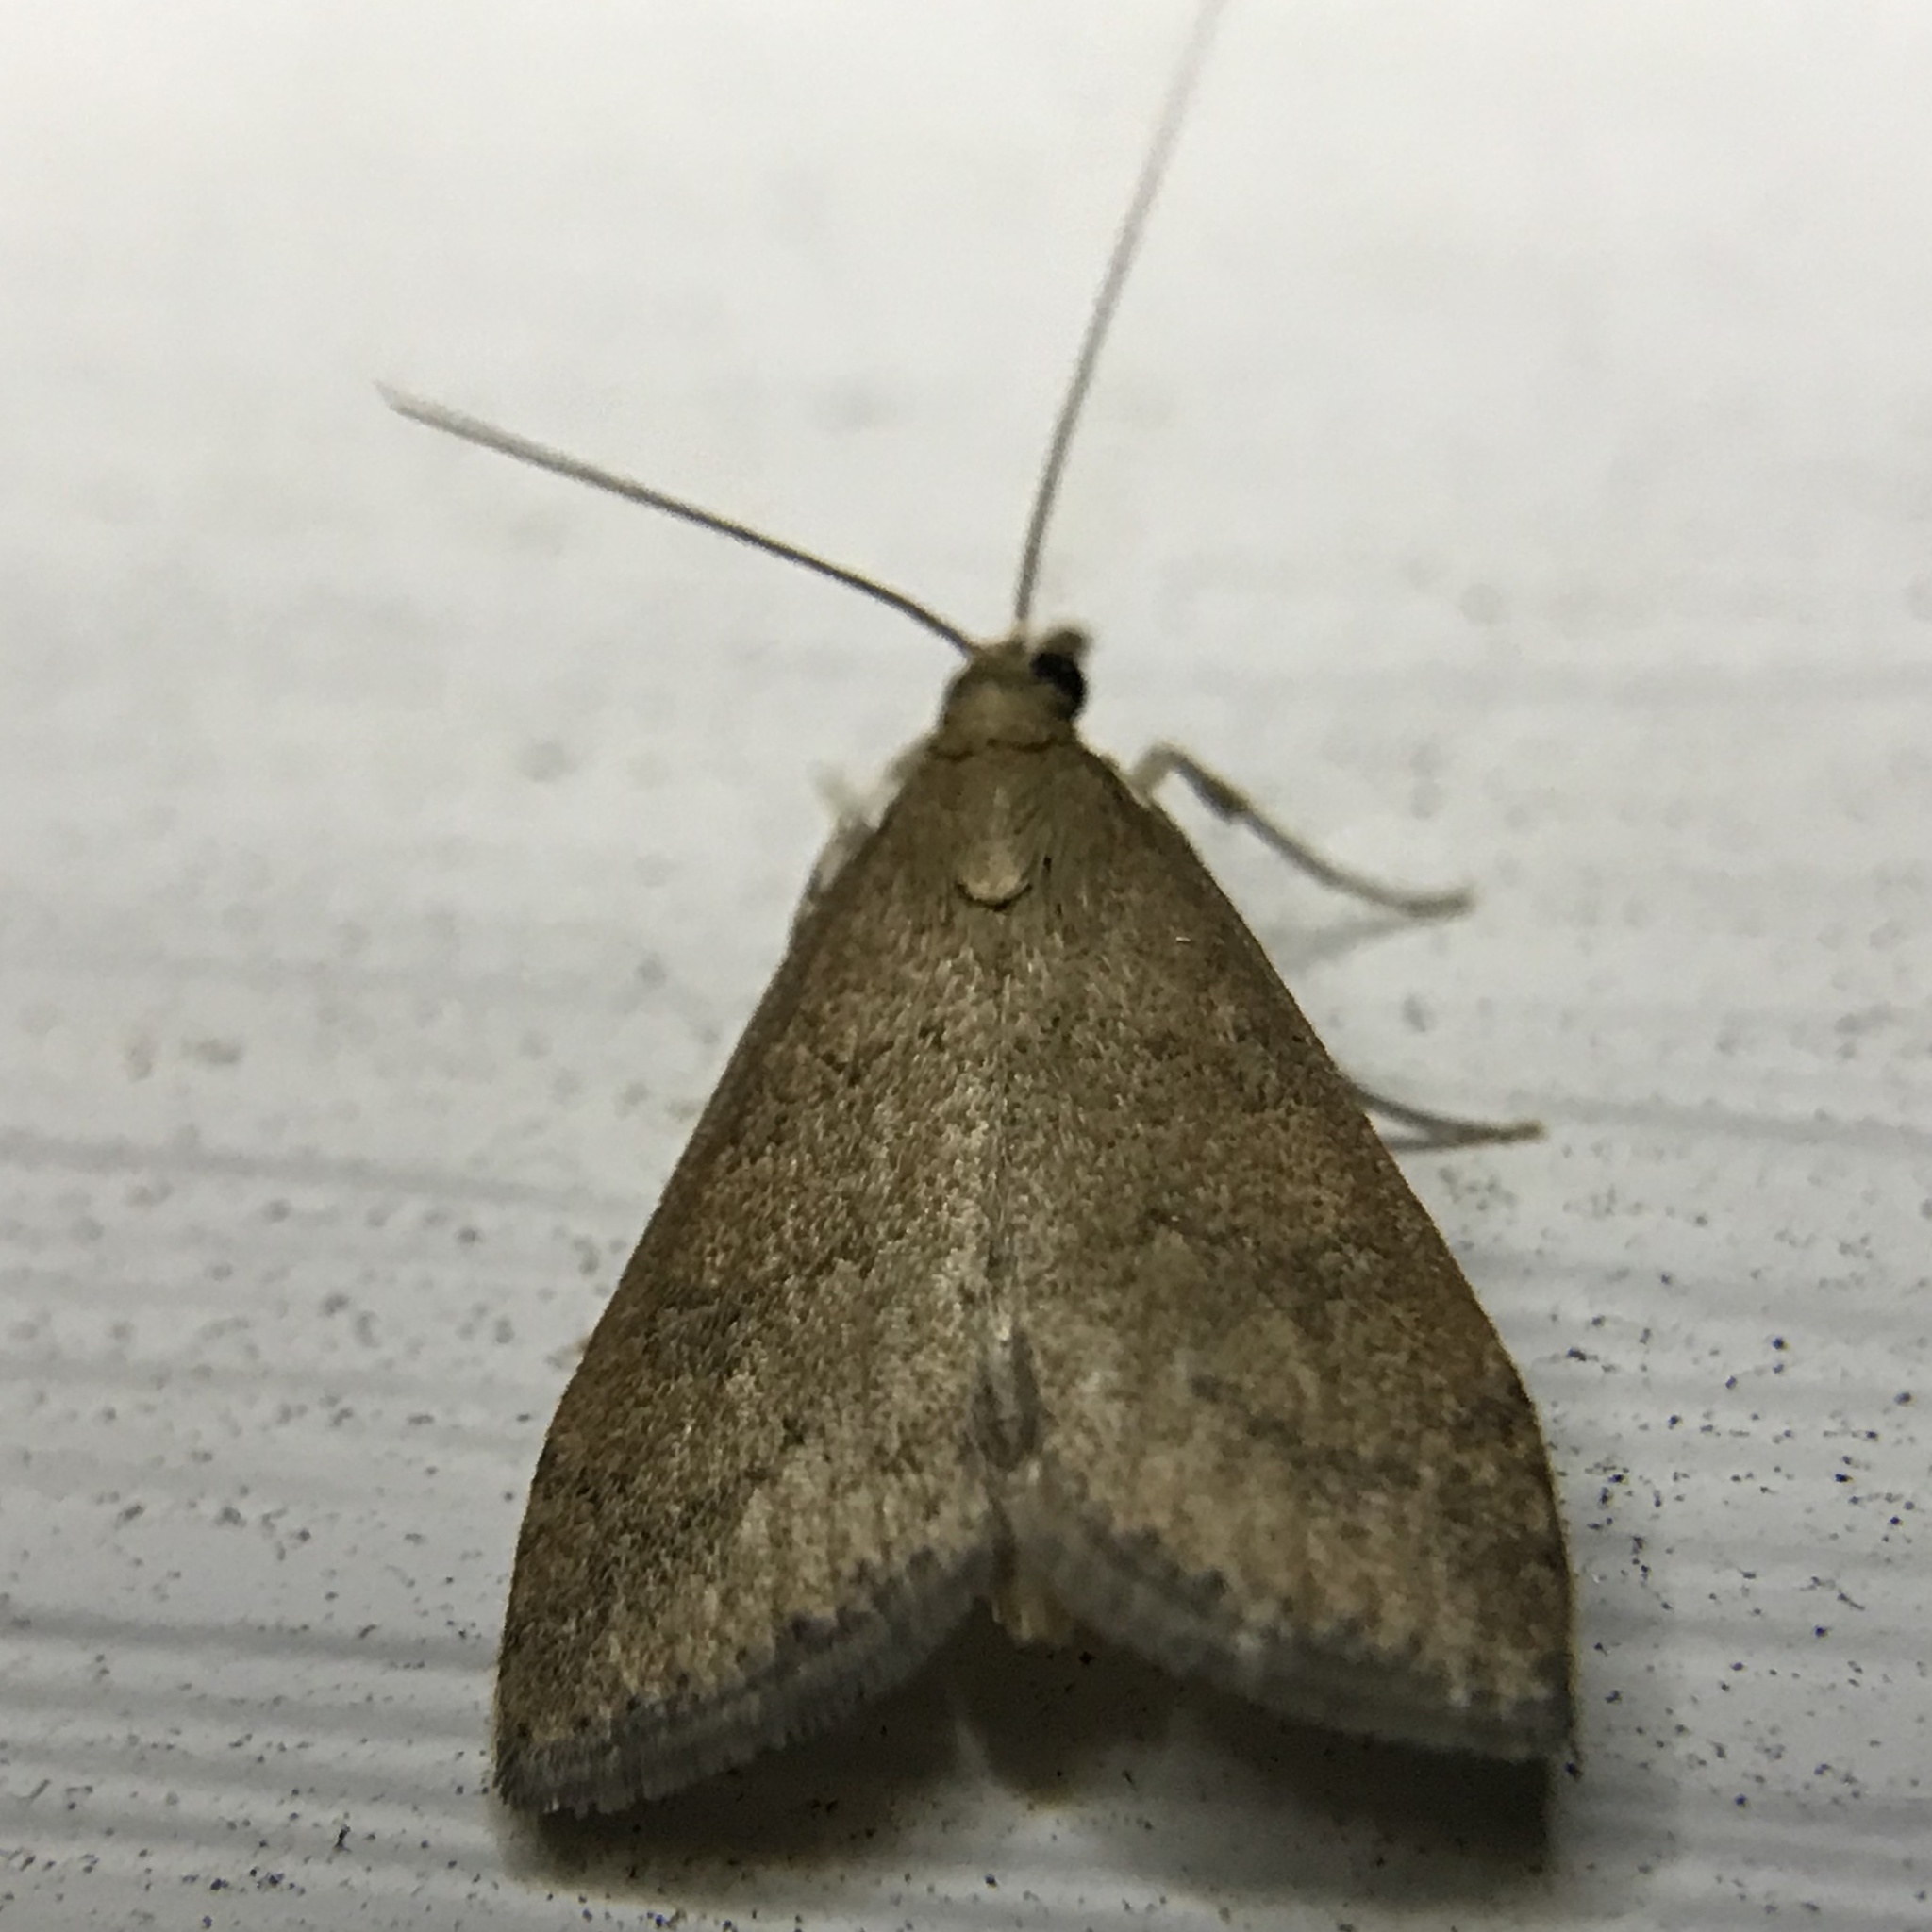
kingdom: Animalia
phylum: Arthropoda
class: Insecta
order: Lepidoptera
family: Crambidae
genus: Udea
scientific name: Udea rubigalis
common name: Celery leaftier moth
